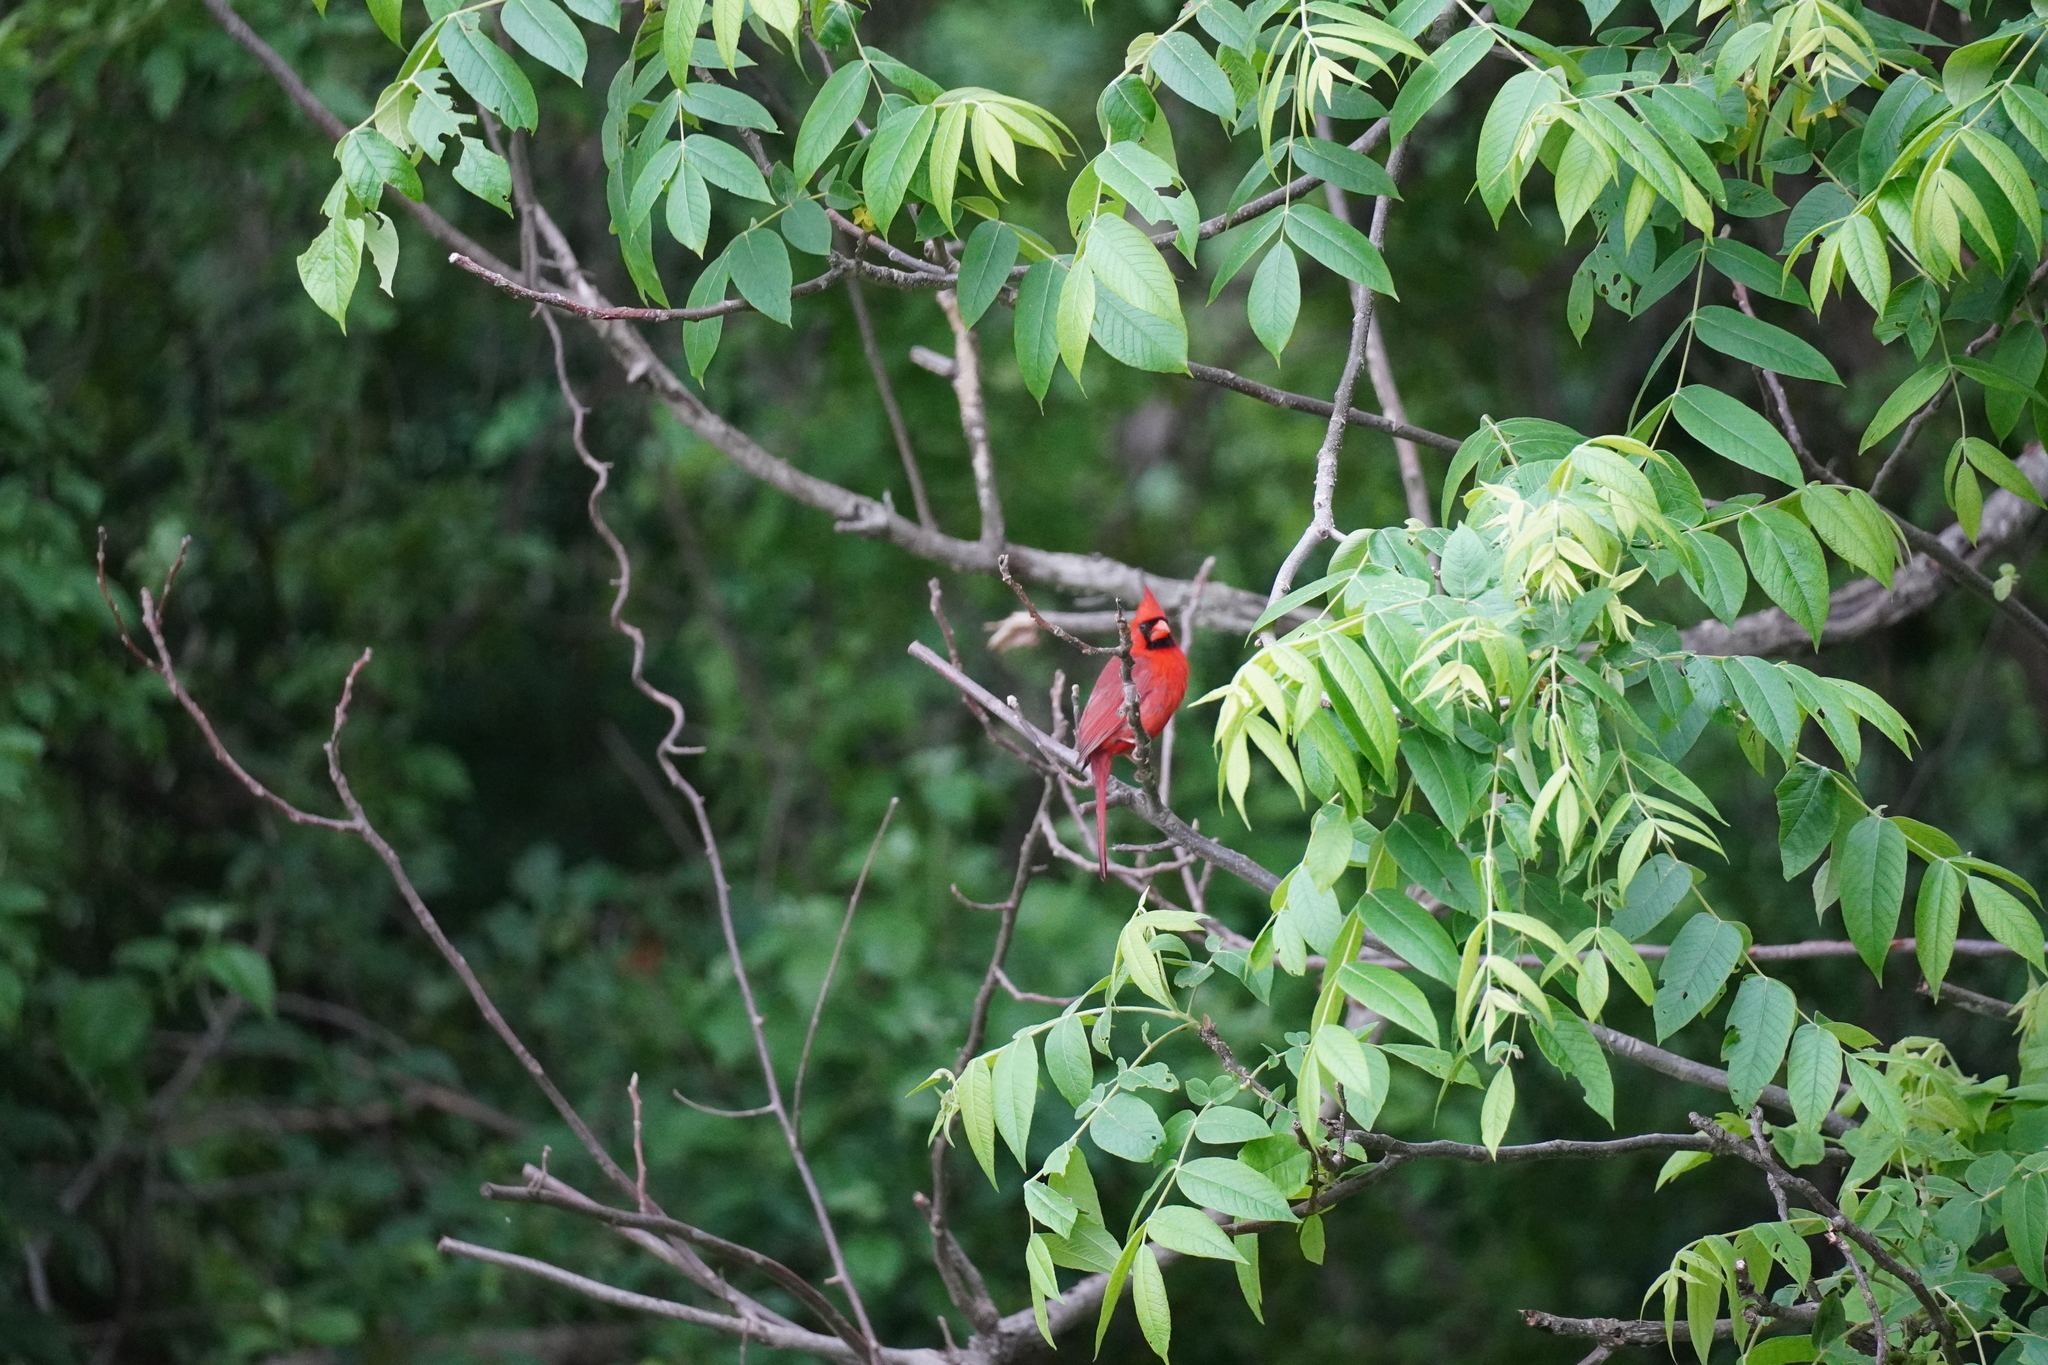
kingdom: Animalia
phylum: Chordata
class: Aves
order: Passeriformes
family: Cardinalidae
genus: Cardinalis
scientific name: Cardinalis cardinalis
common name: Northern cardinal
